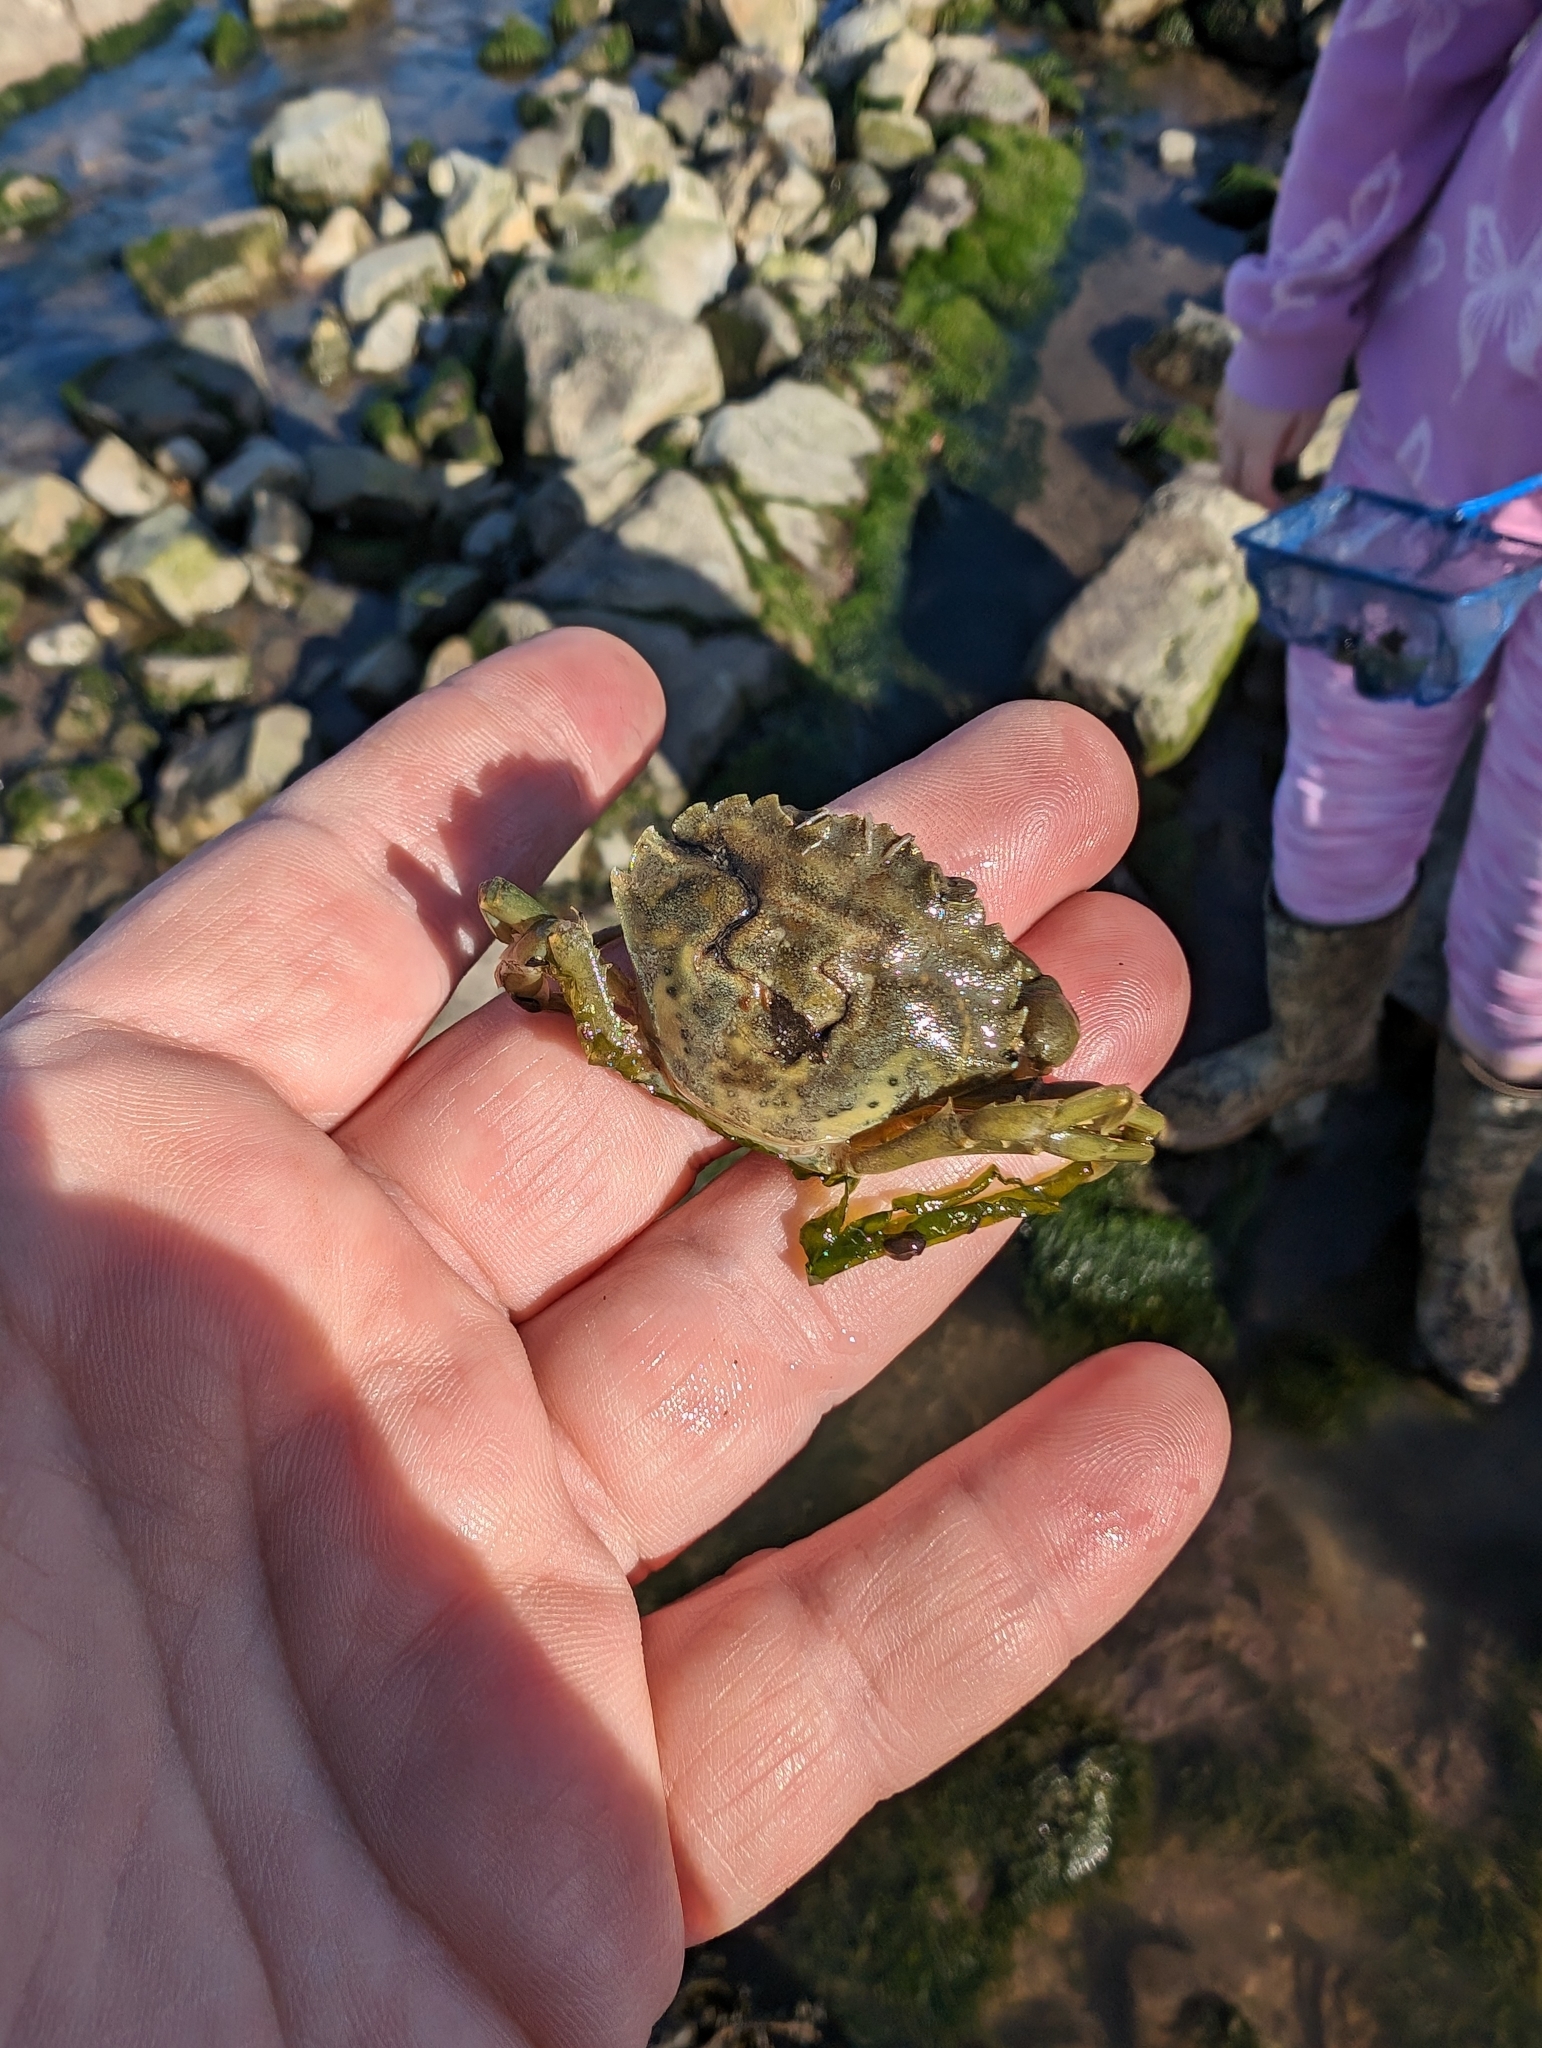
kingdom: Animalia
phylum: Arthropoda
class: Malacostraca
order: Decapoda
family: Carcinidae
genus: Carcinus
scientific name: Carcinus maenas
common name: European green crab
